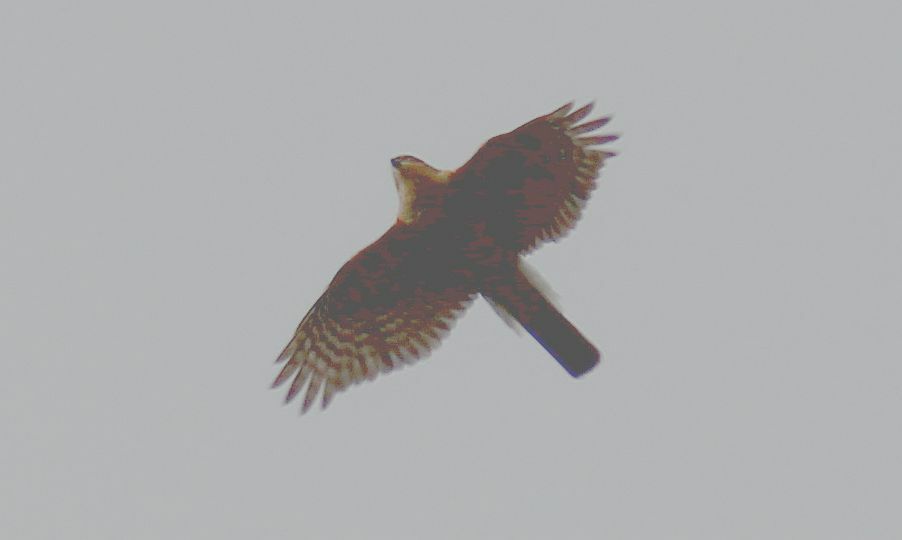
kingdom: Animalia
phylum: Chordata
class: Aves
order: Accipitriformes
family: Accipitridae
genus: Accipiter
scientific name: Accipiter nisus
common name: Eurasian sparrowhawk
